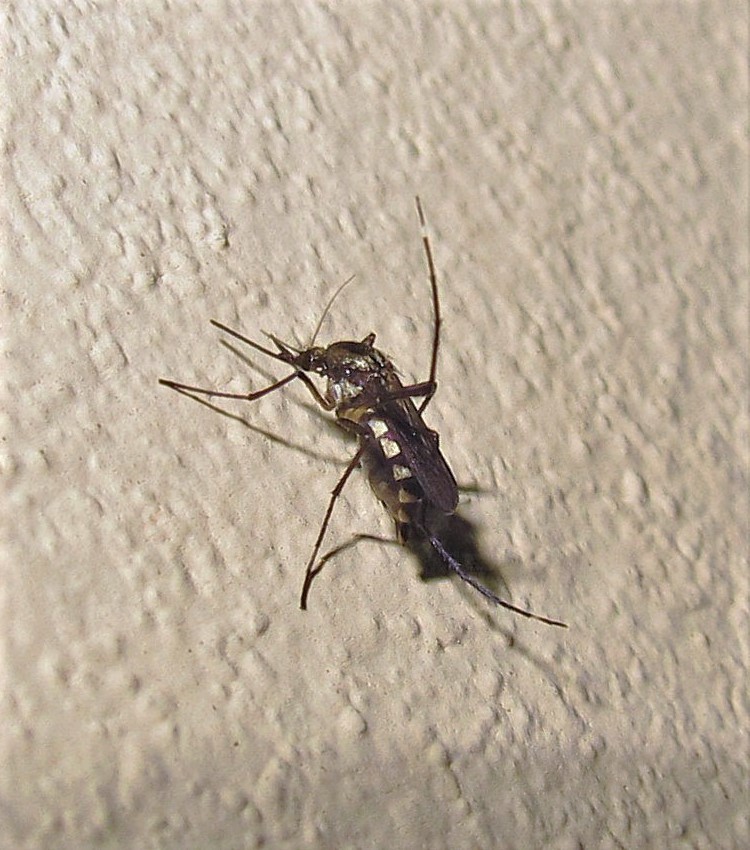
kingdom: Animalia
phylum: Arthropoda
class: Insecta
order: Diptera
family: Culicidae
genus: Psorophora
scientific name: Psorophora albigenu
